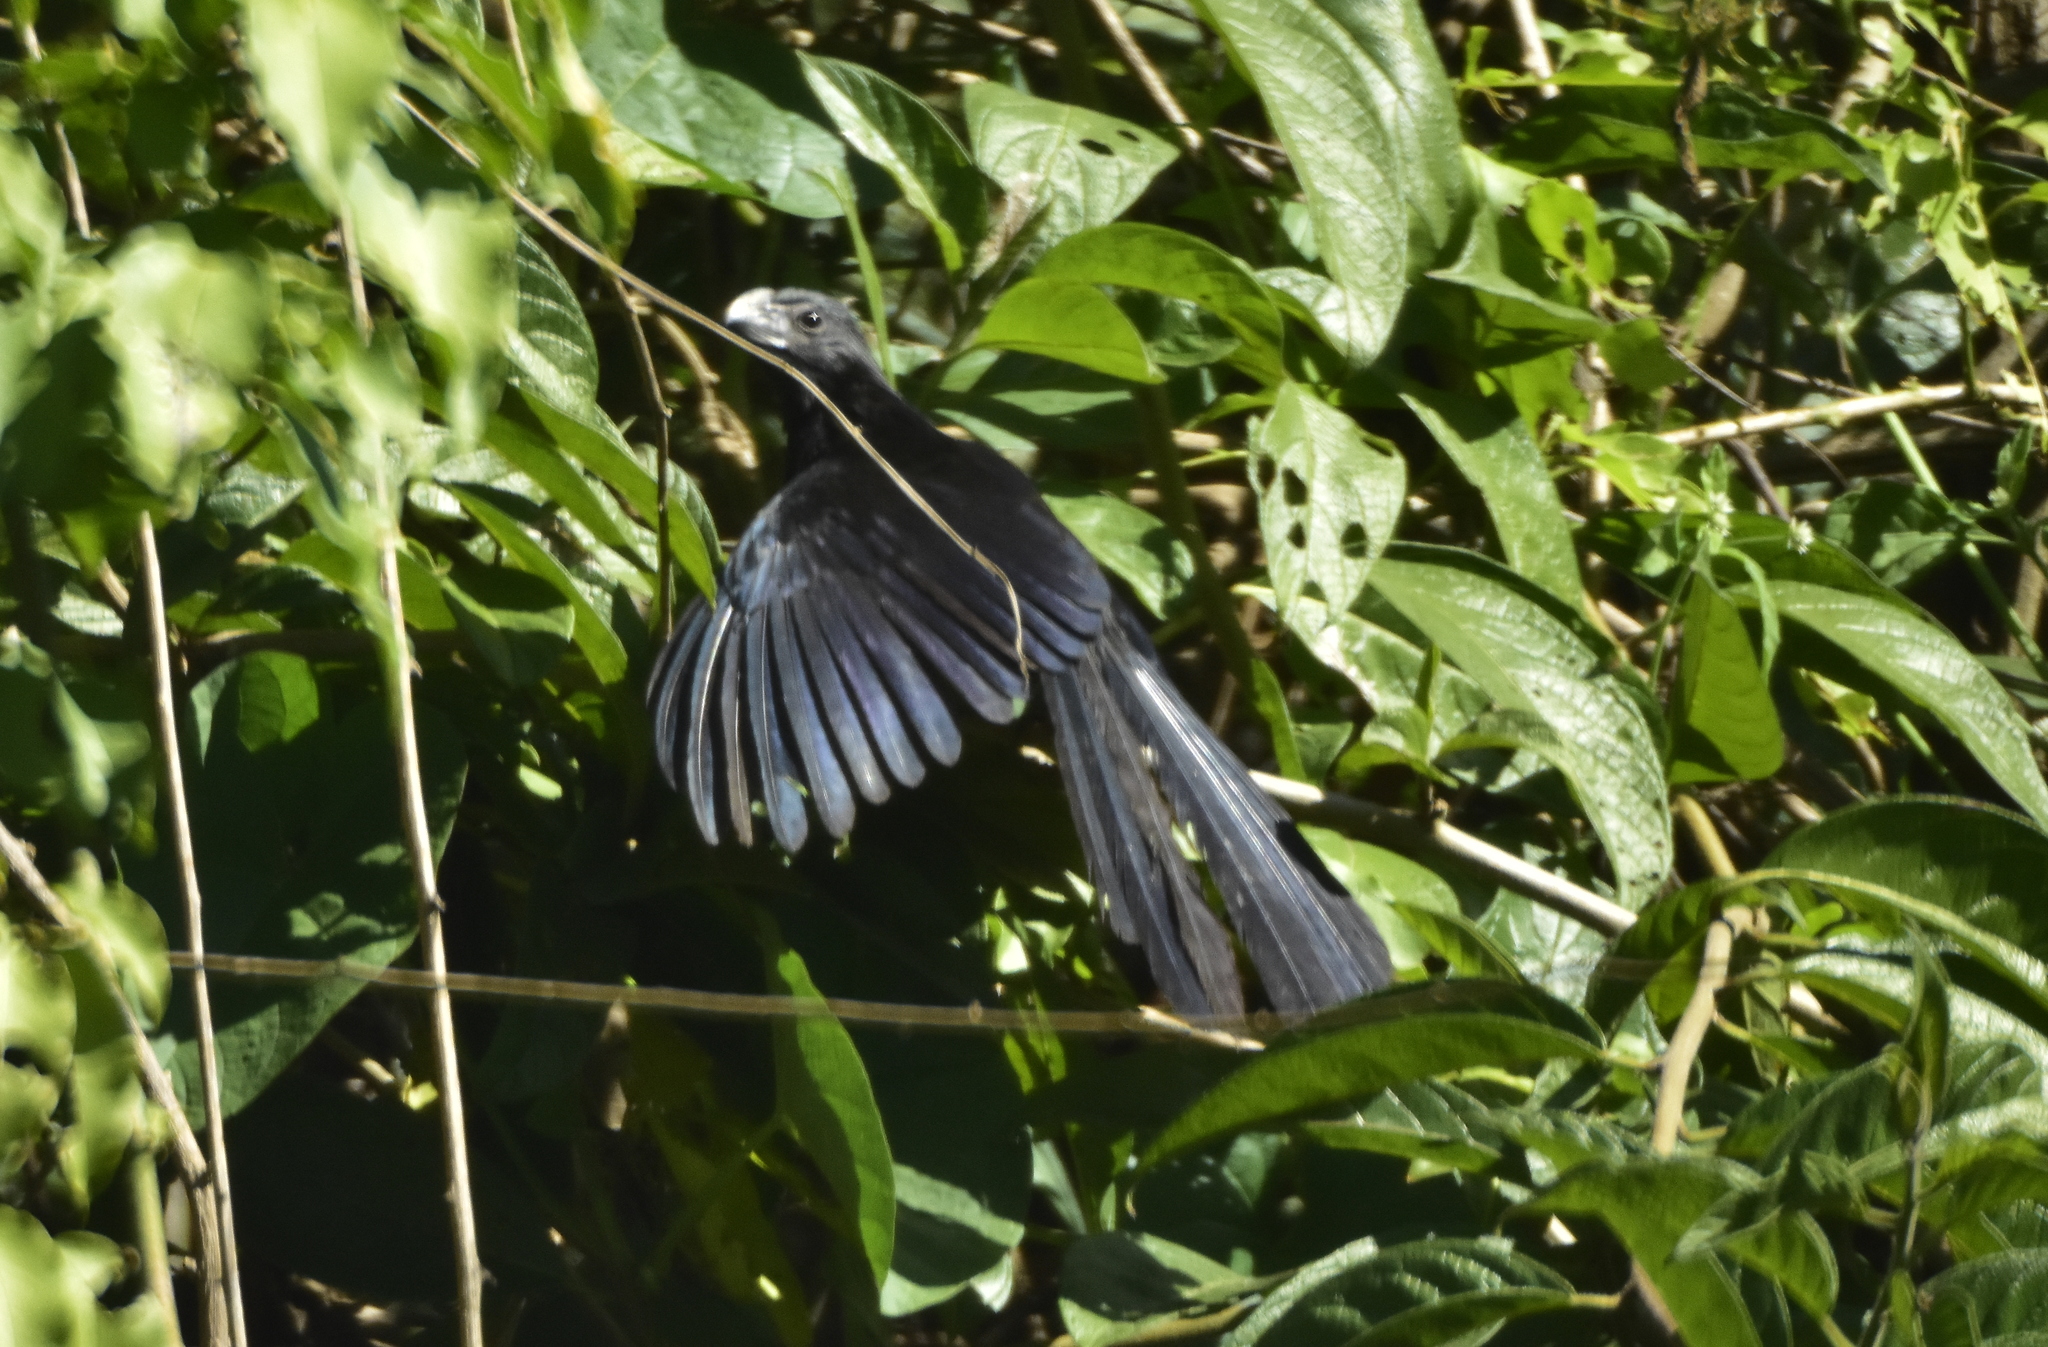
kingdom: Animalia
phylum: Chordata
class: Aves
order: Cuculiformes
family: Cuculidae
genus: Crotophaga
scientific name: Crotophaga sulcirostris
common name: Groove-billed ani
